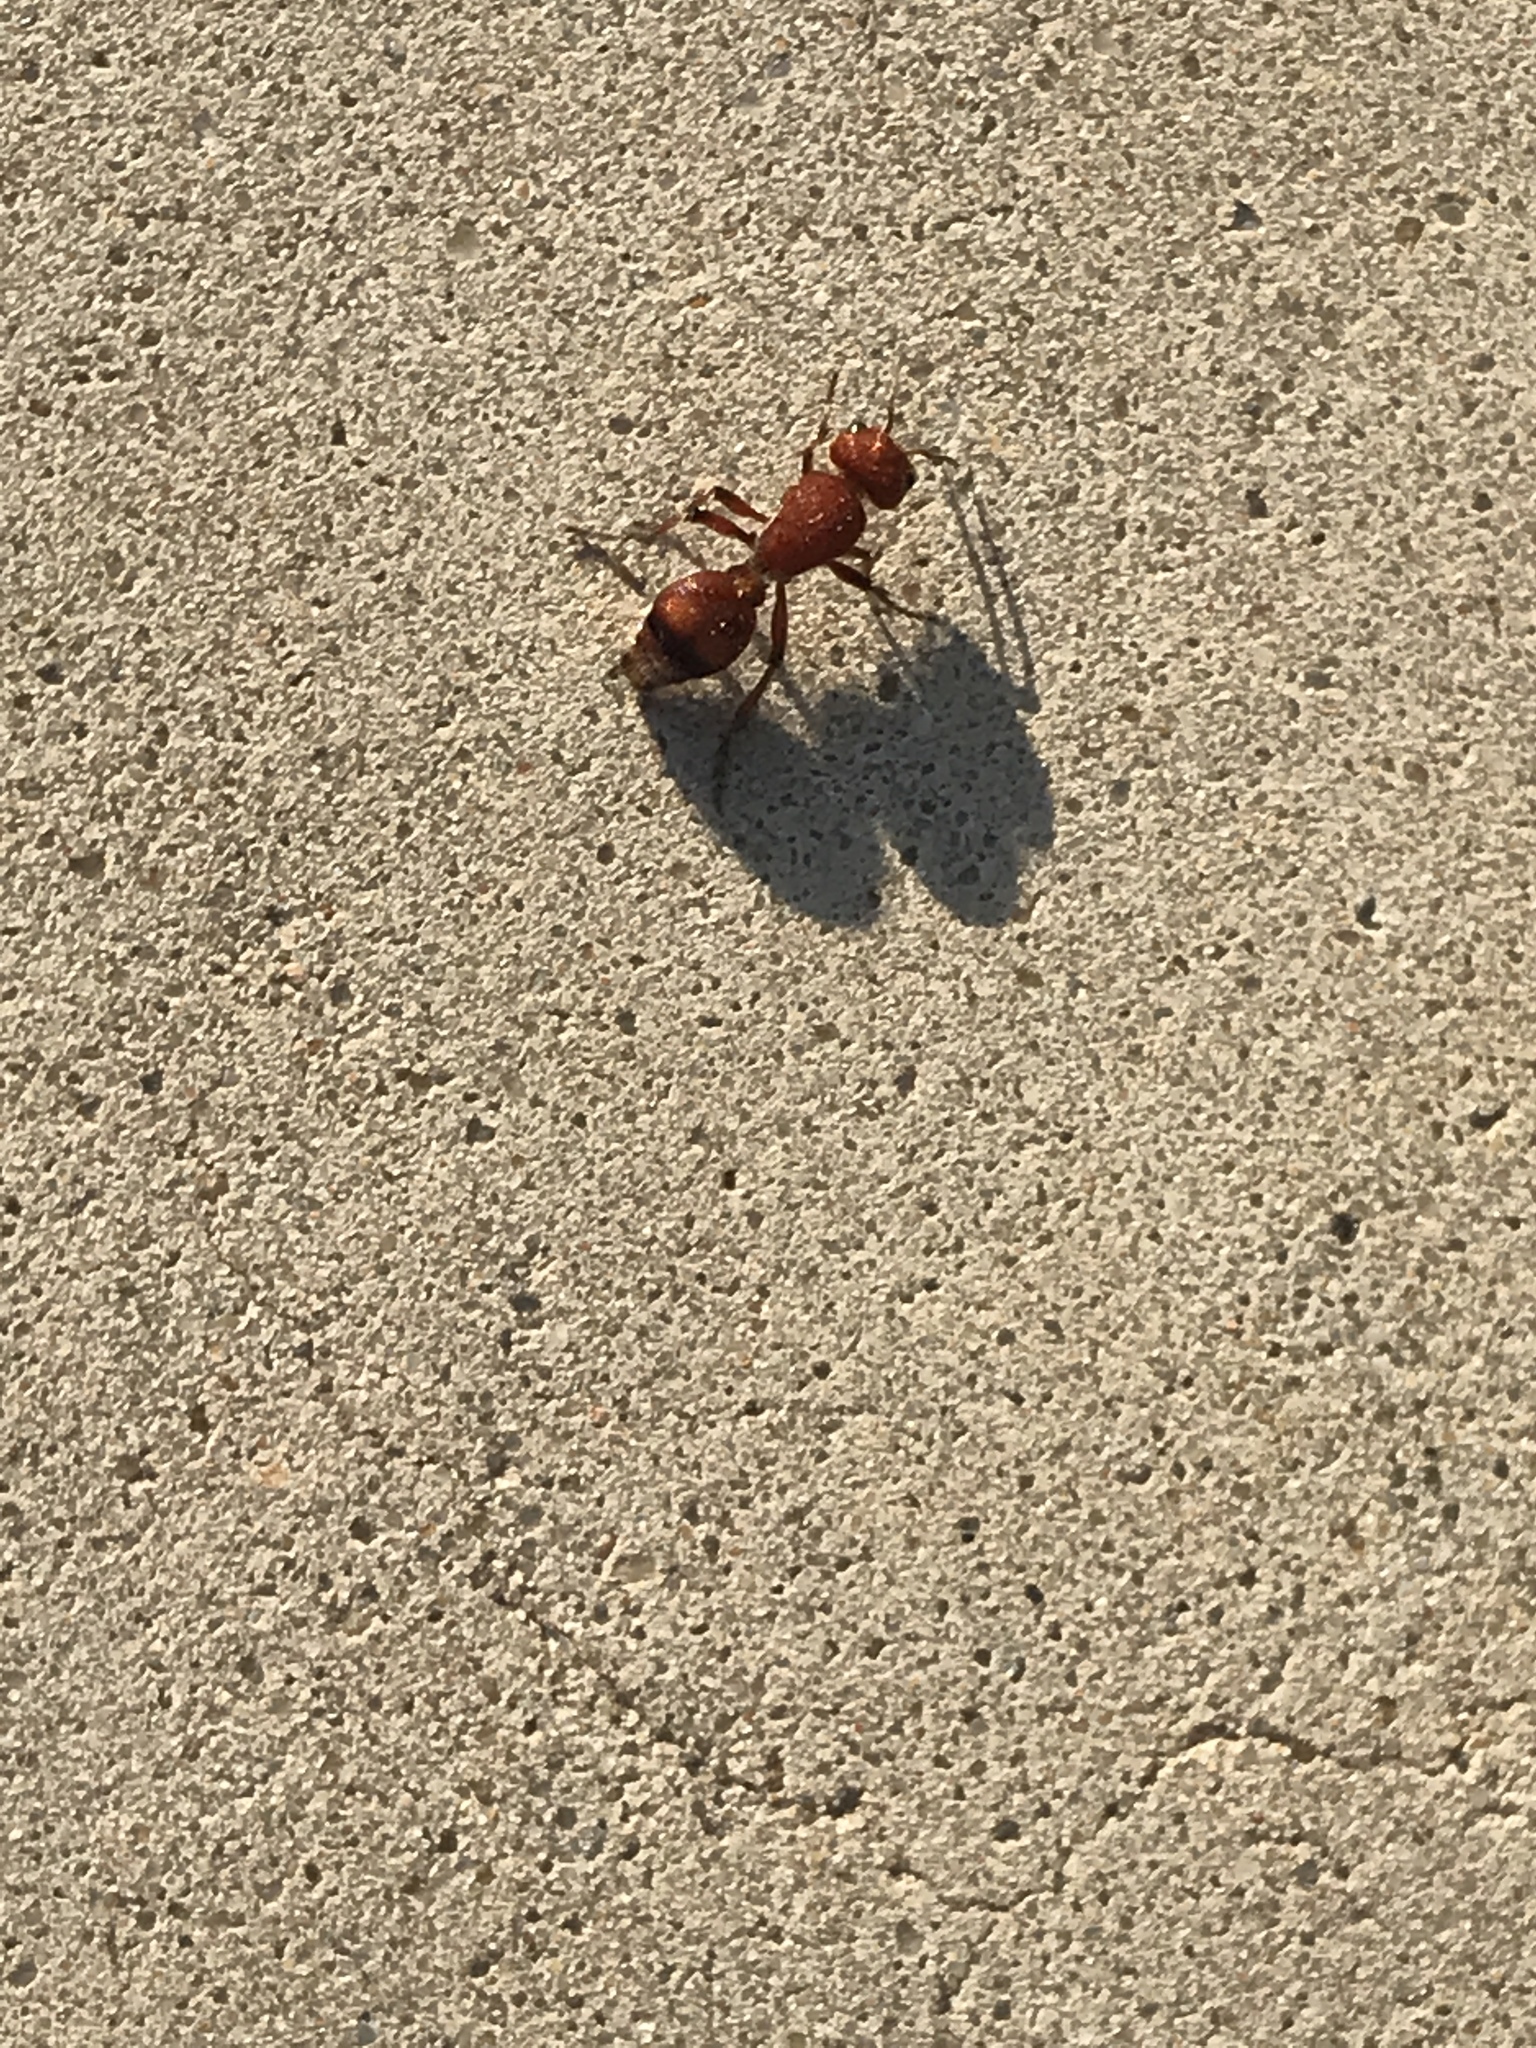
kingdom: Animalia
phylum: Arthropoda
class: Insecta
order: Hymenoptera
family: Mutillidae
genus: Dasymutilla
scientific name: Dasymutilla
